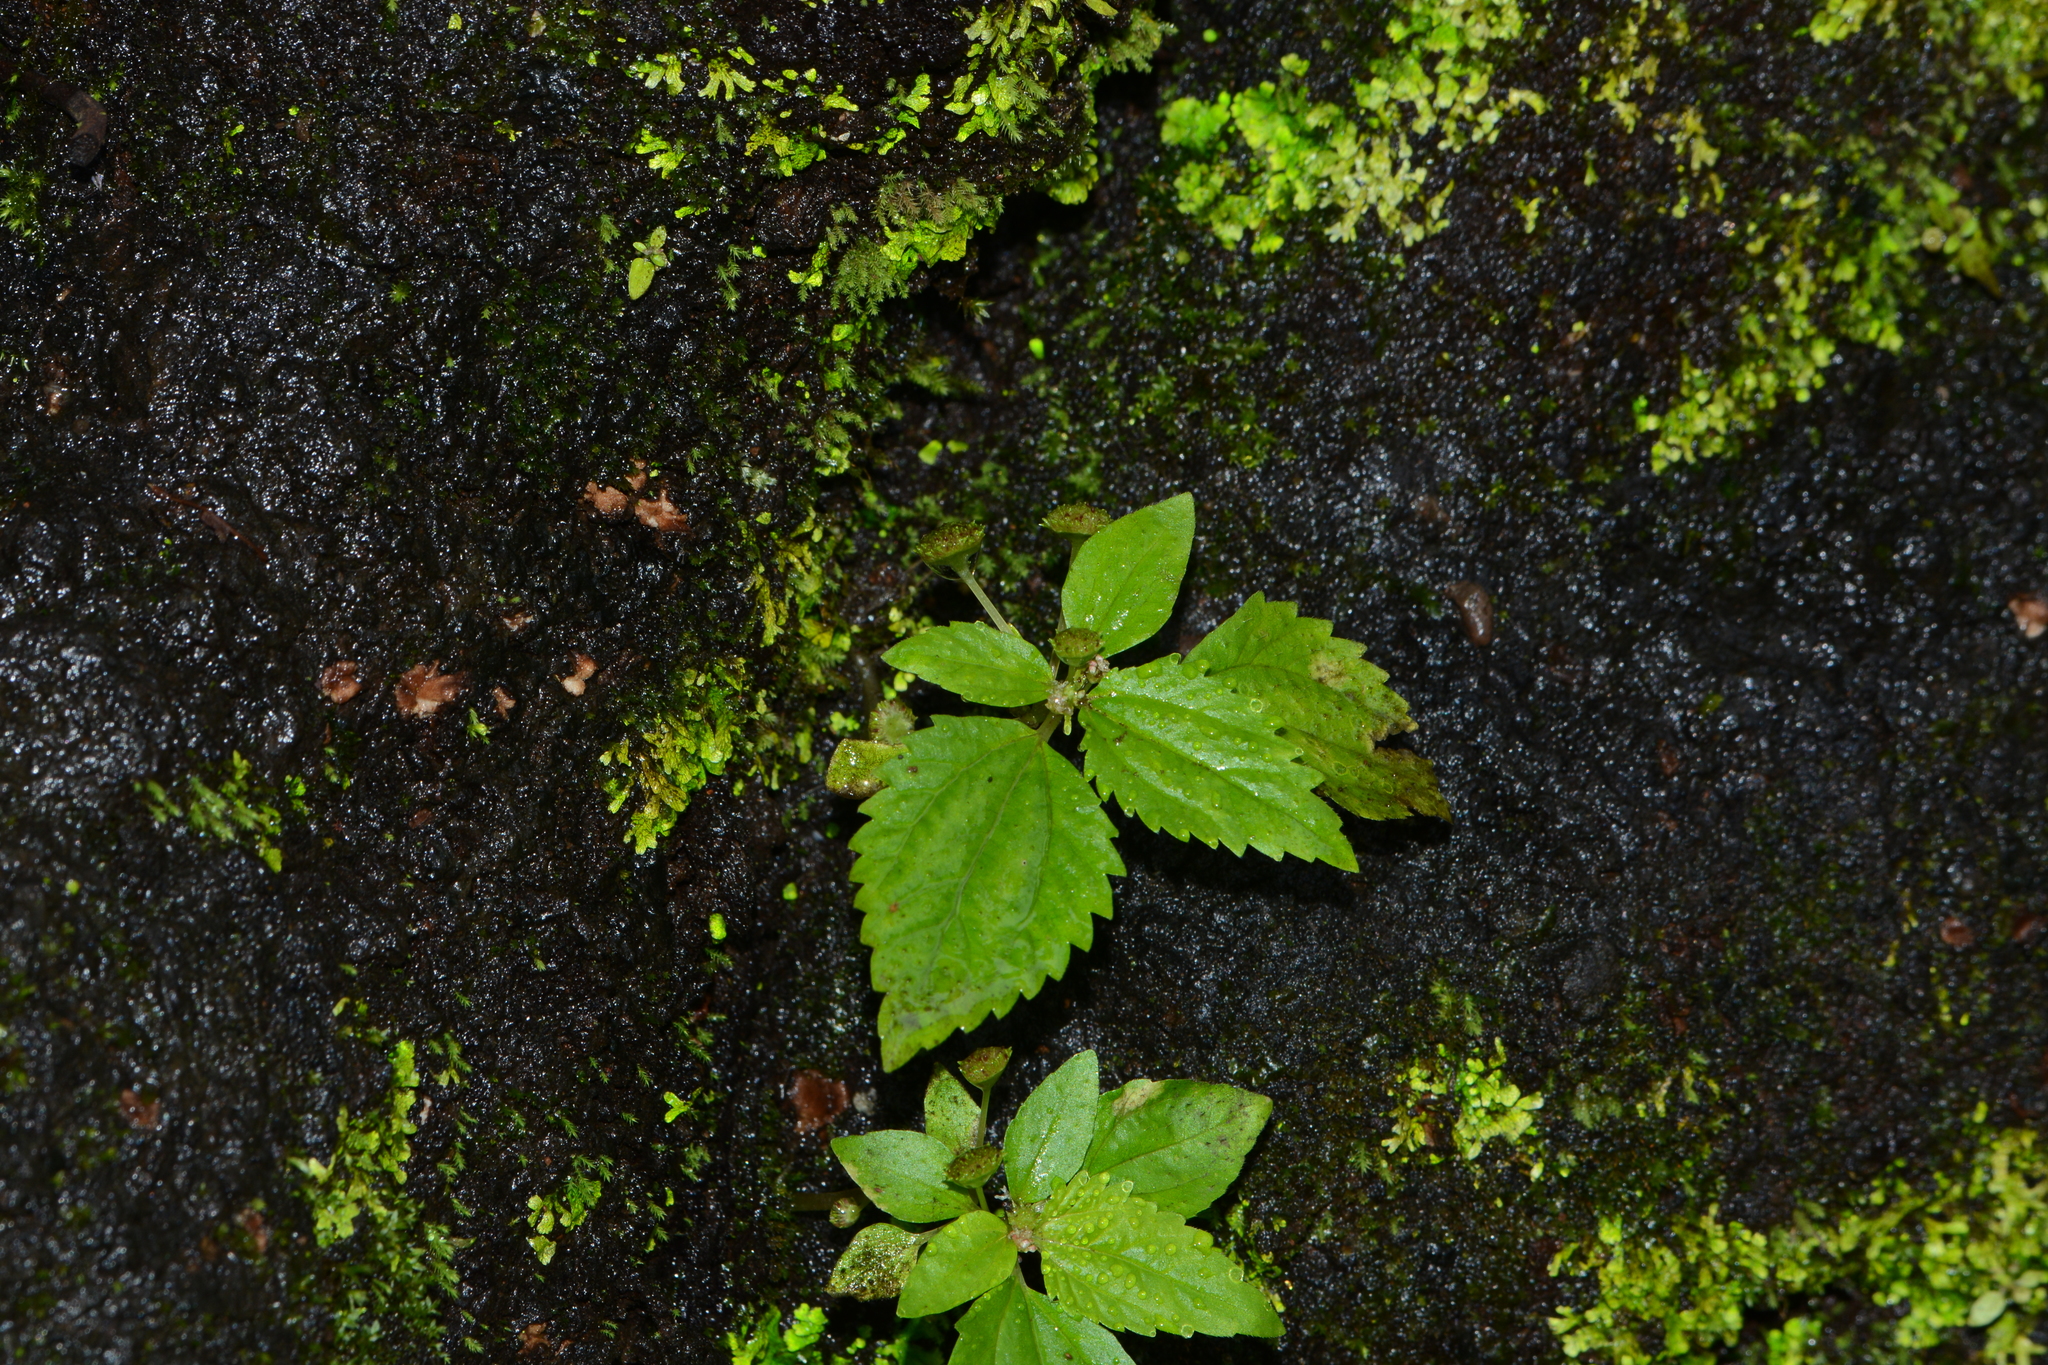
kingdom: Plantae
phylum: Tracheophyta
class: Magnoliopsida
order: Rosales
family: Urticaceae
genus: Lecanthus
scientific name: Lecanthus peduncularis
